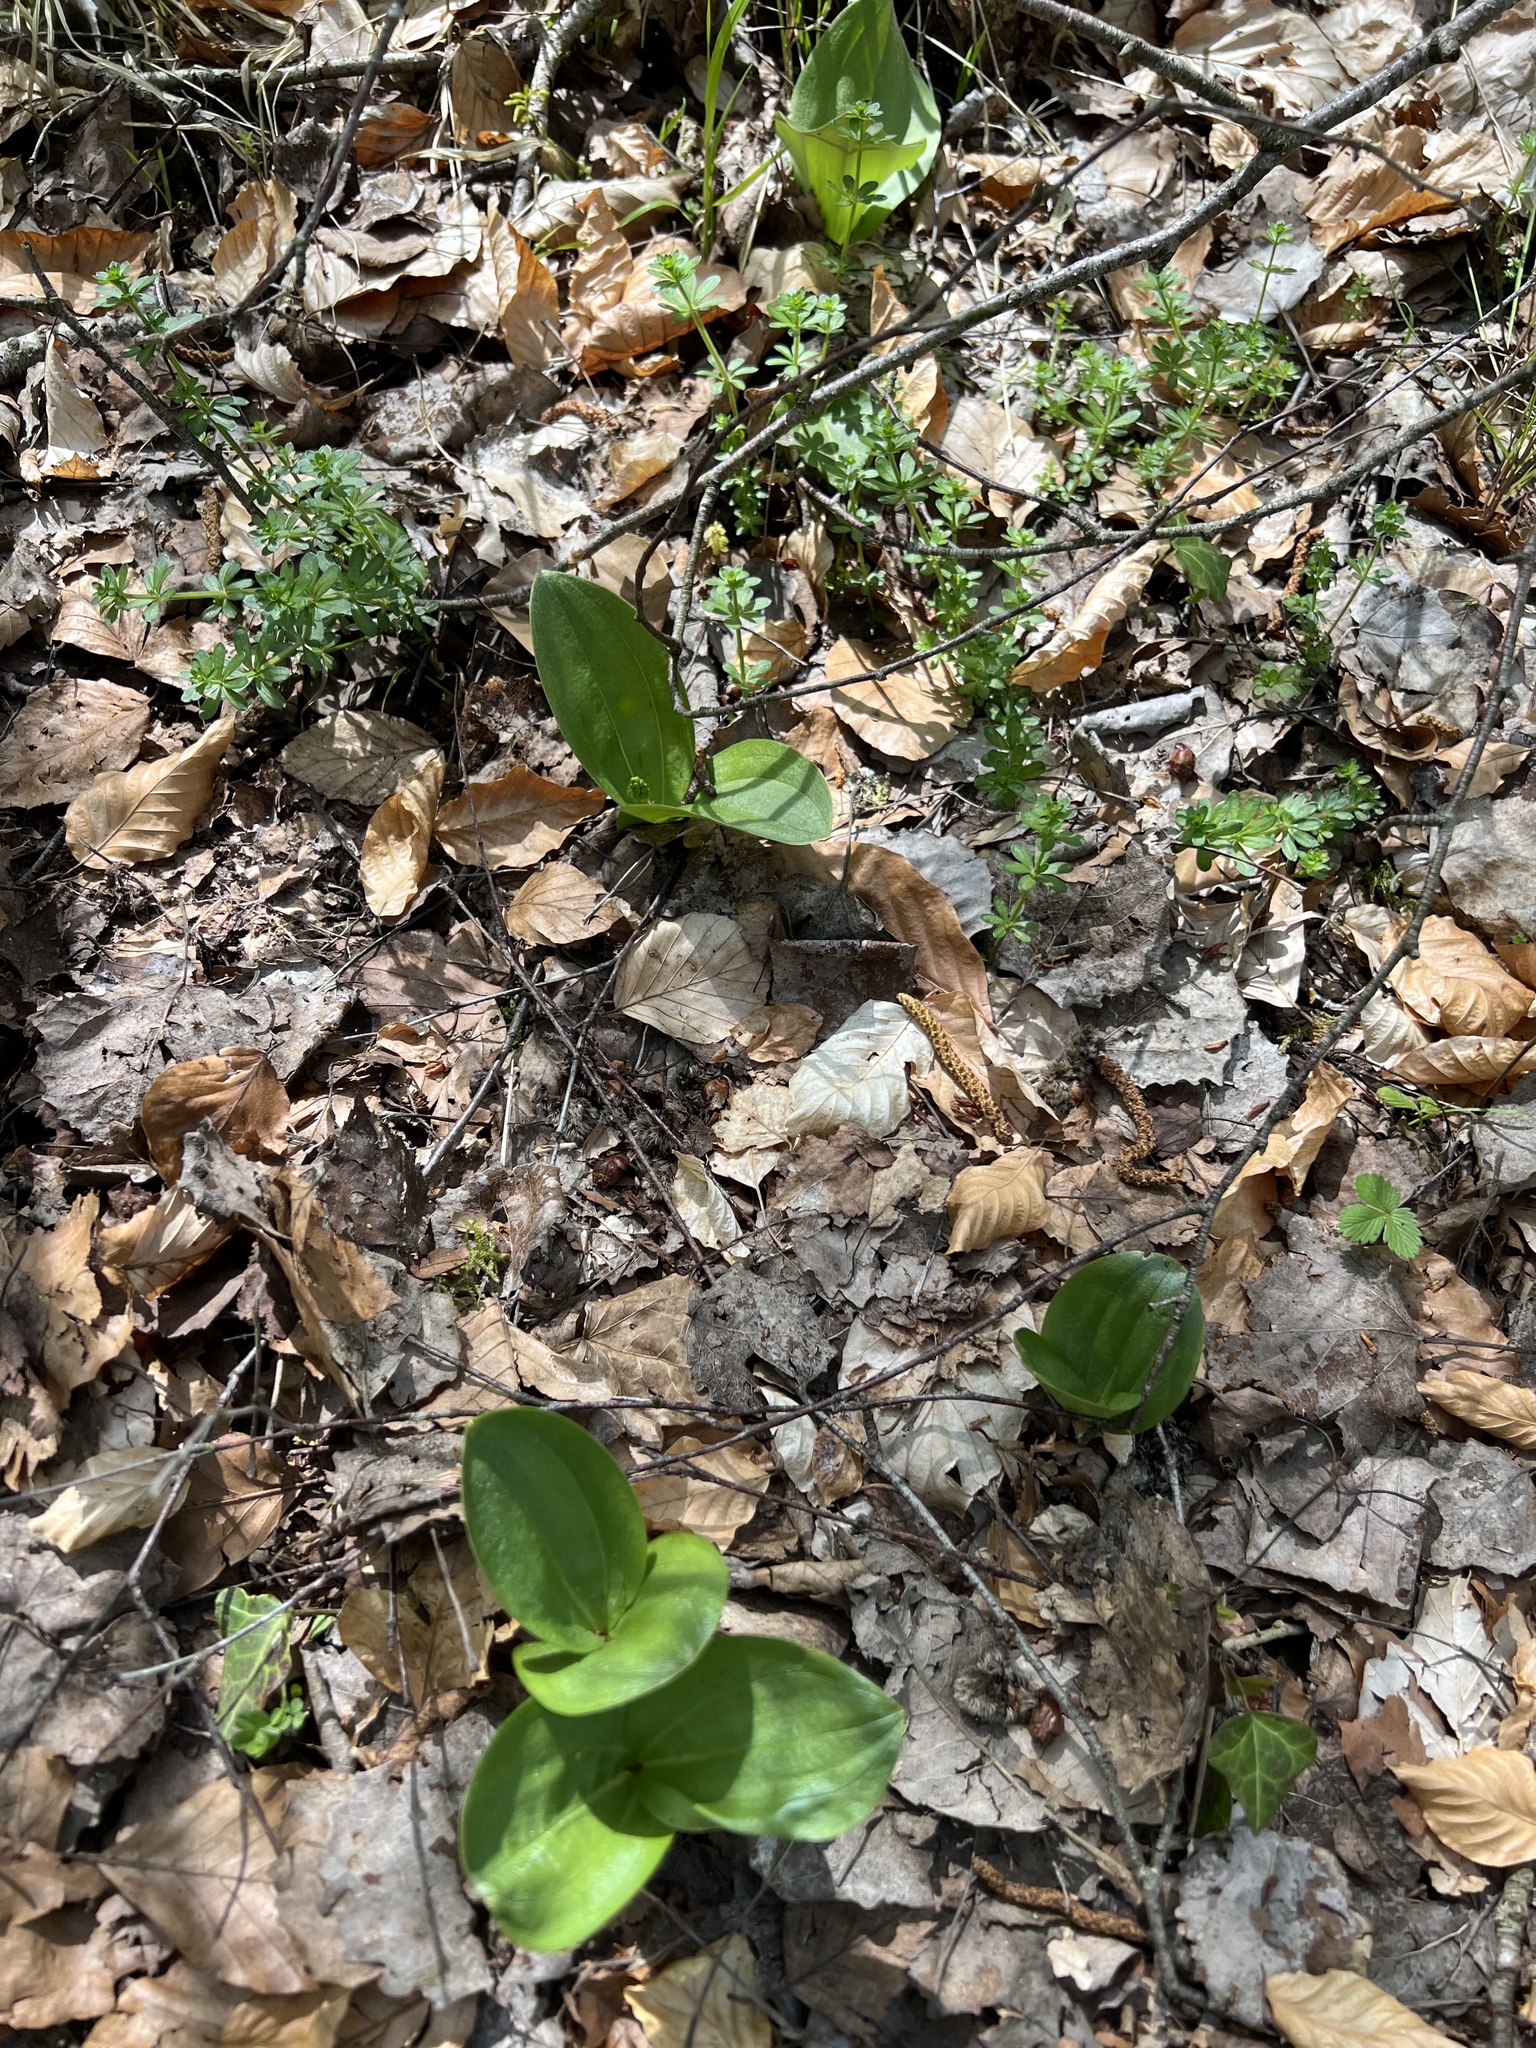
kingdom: Plantae
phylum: Tracheophyta
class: Liliopsida
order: Asparagales
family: Orchidaceae
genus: Neottia
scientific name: Neottia ovata
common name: Common twayblade
